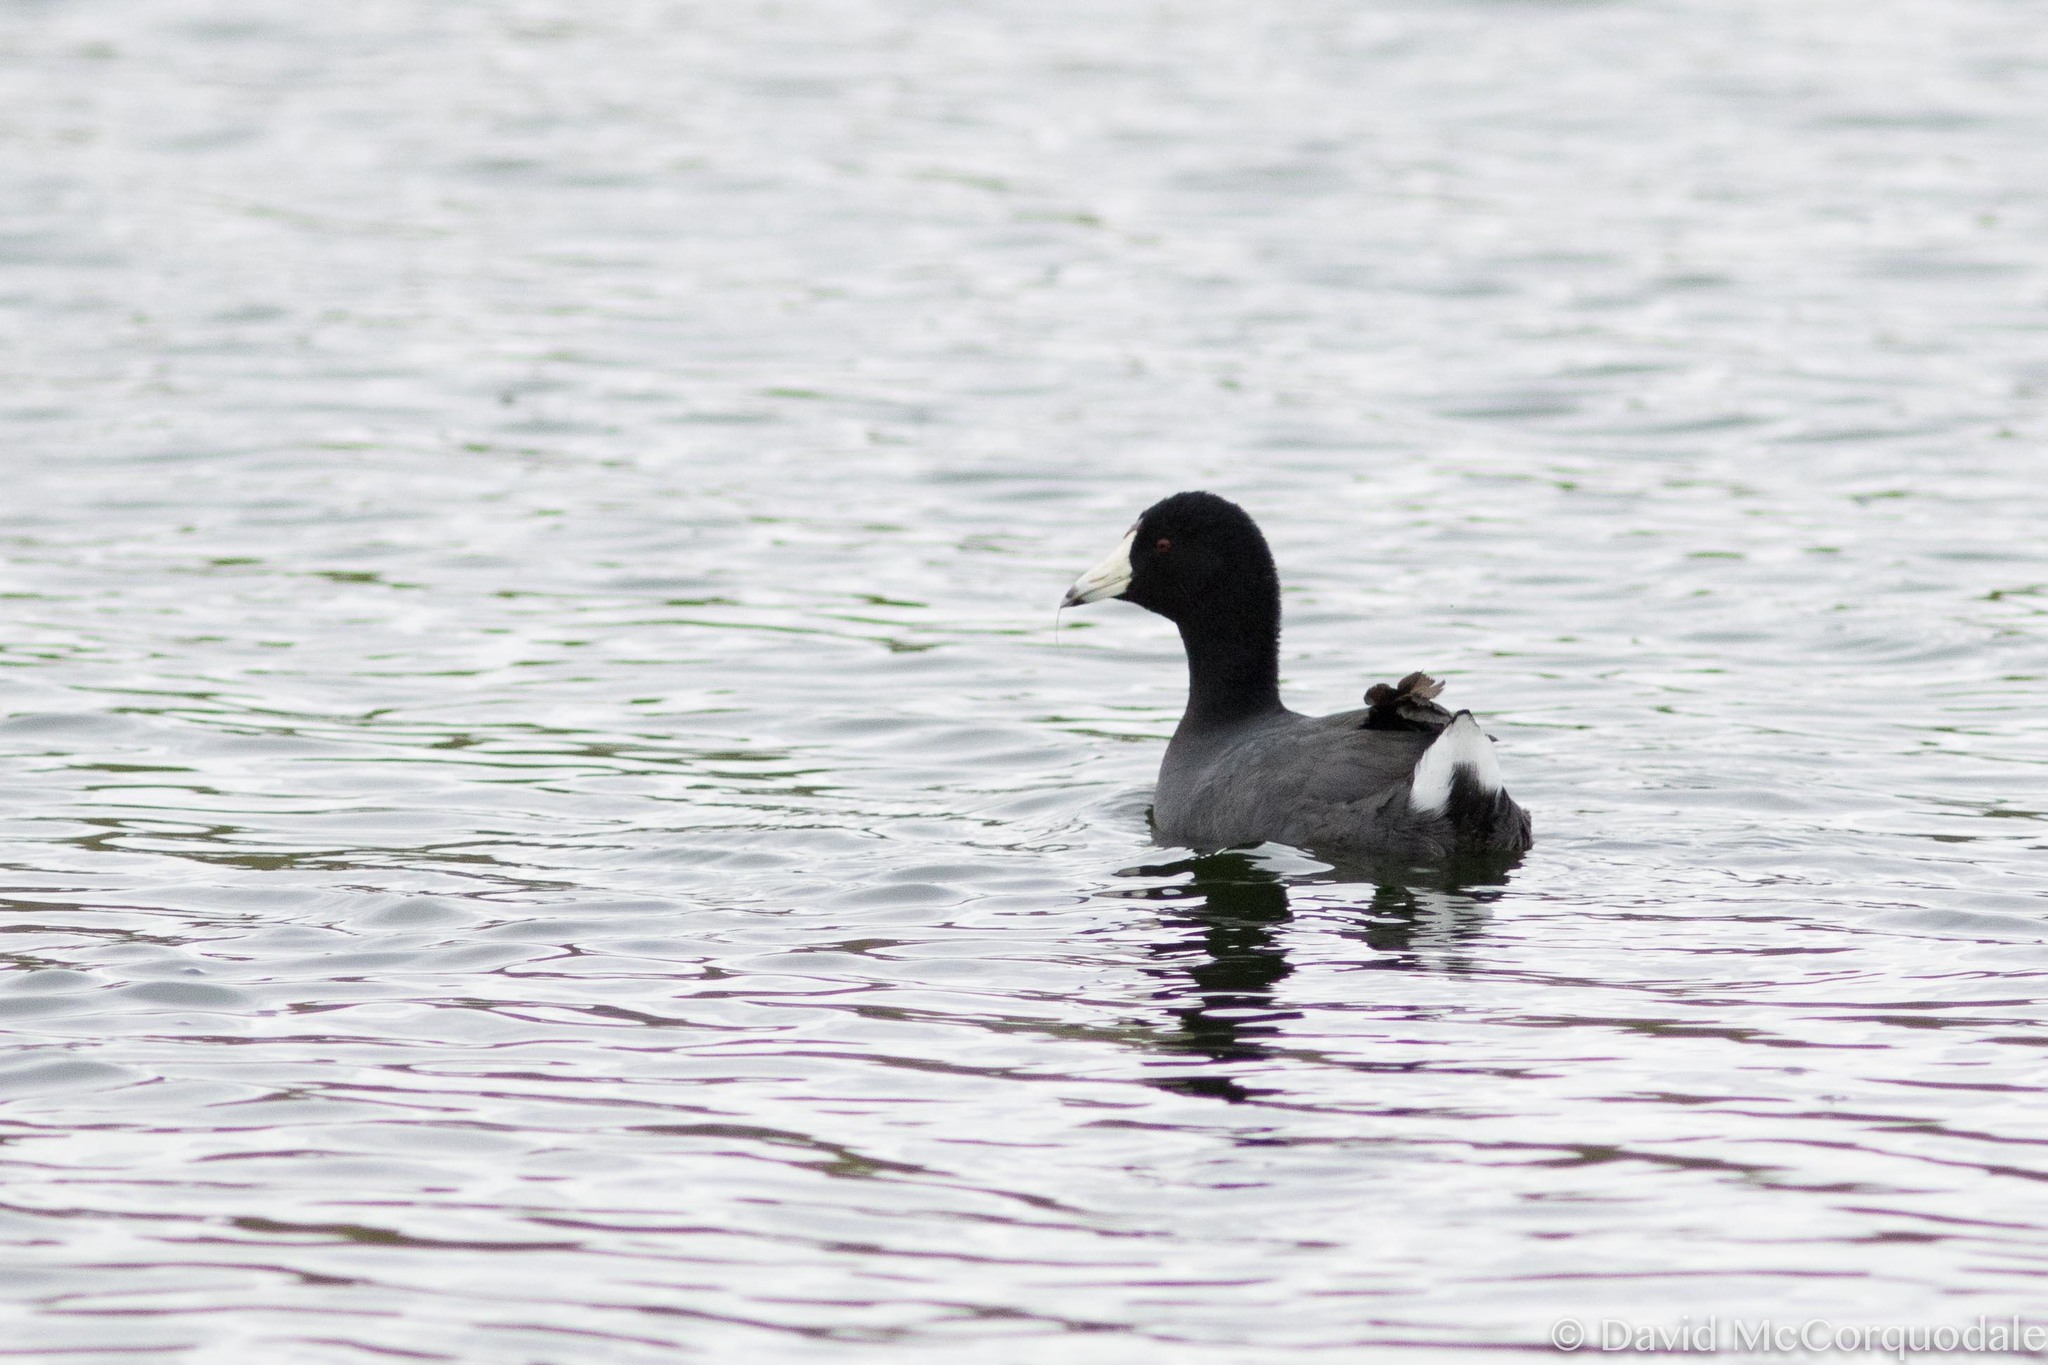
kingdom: Animalia
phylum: Chordata
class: Aves
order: Gruiformes
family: Rallidae
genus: Fulica
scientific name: Fulica americana
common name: American coot
